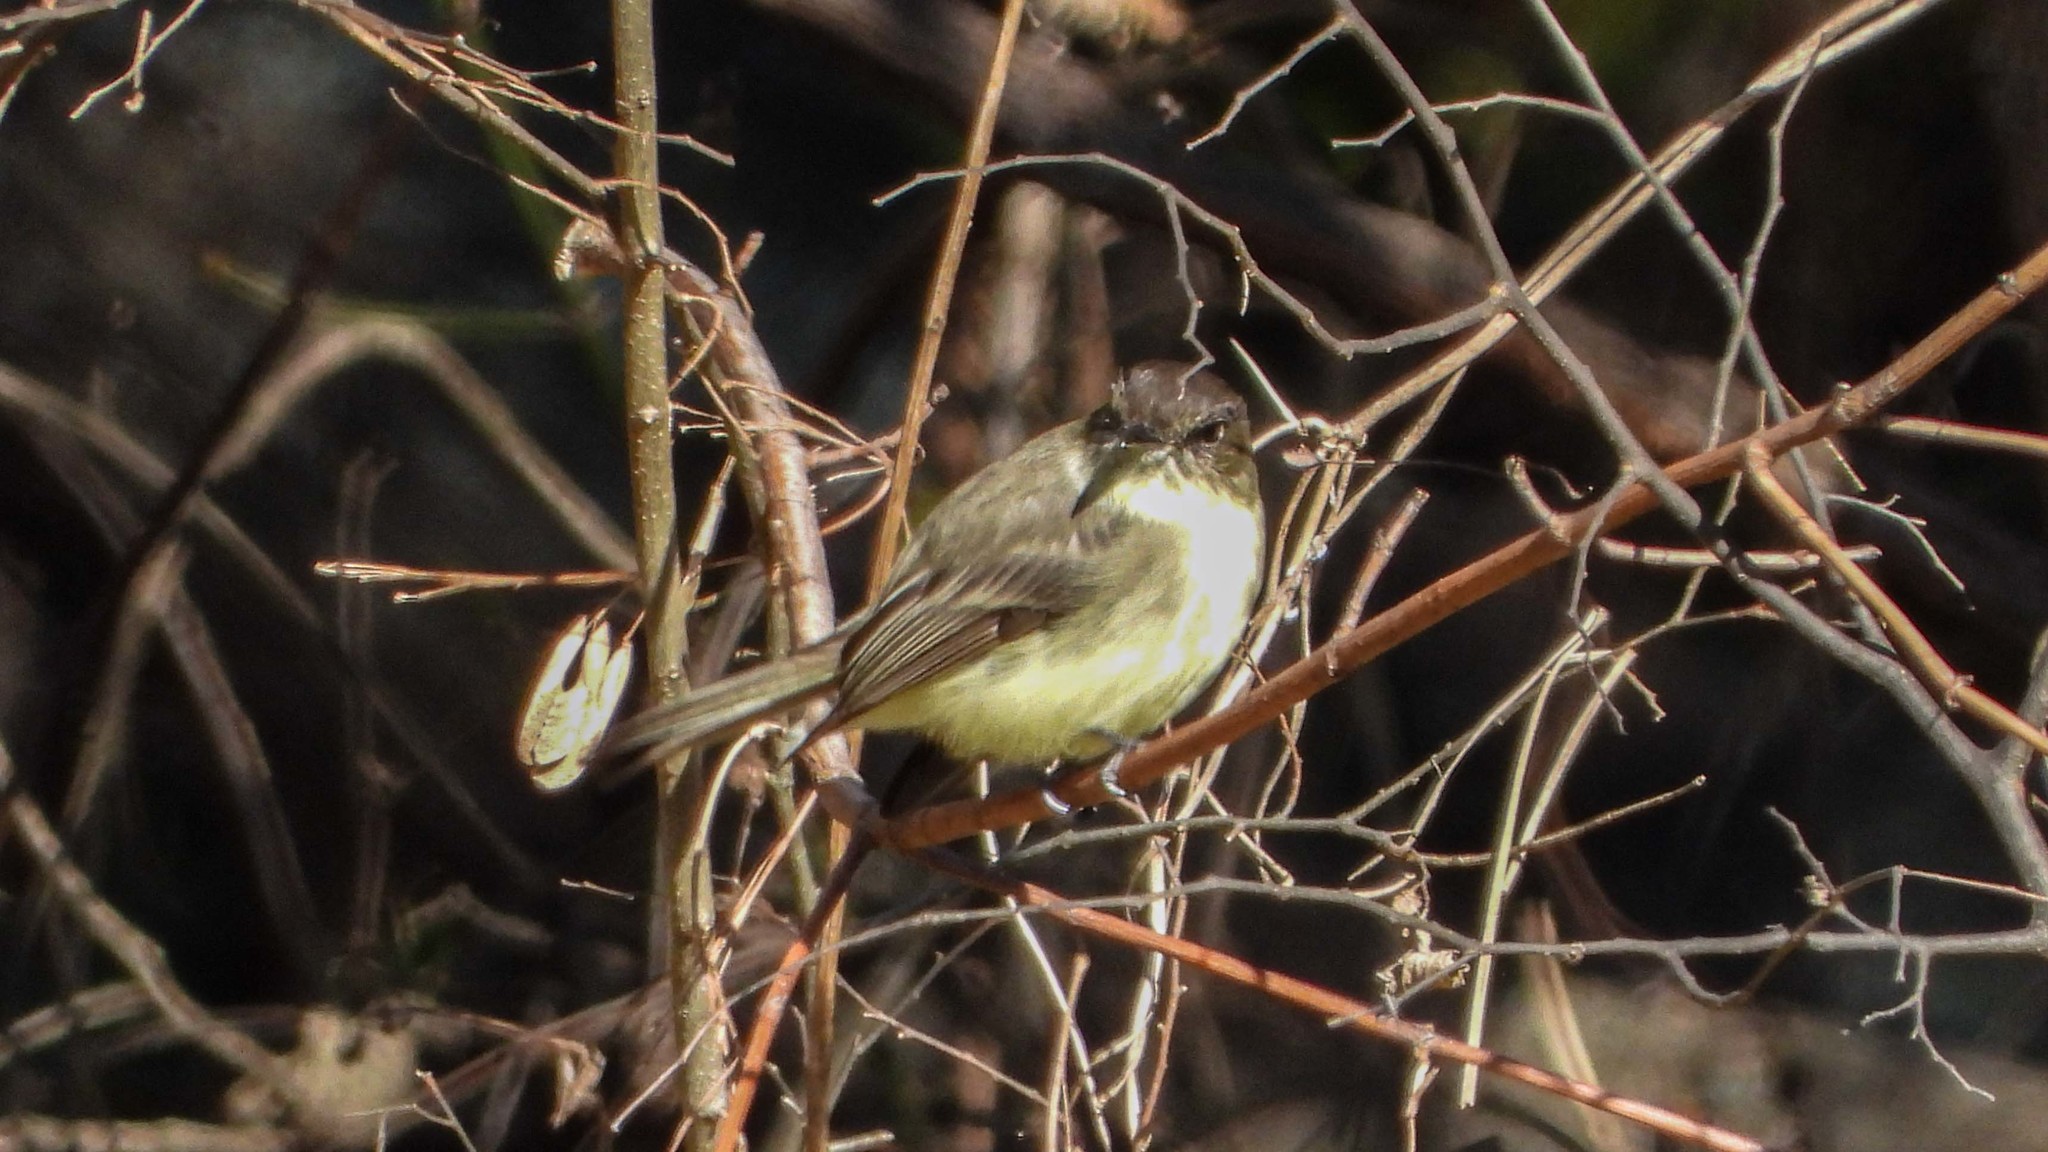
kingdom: Animalia
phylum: Chordata
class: Aves
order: Passeriformes
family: Tyrannidae
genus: Sayornis
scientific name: Sayornis phoebe
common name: Eastern phoebe
